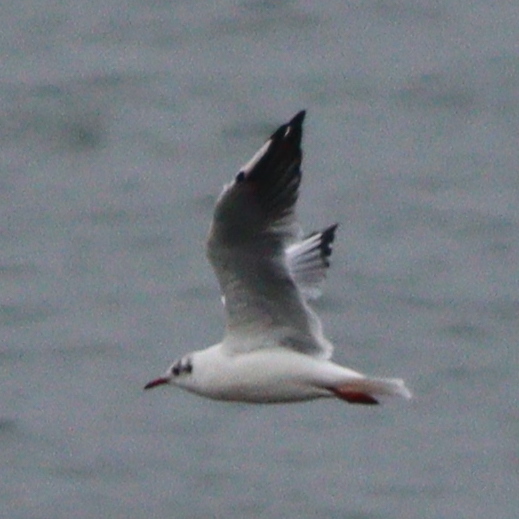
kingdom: Animalia
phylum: Chordata
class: Aves
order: Charadriiformes
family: Laridae
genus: Chroicocephalus
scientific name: Chroicocephalus ridibundus
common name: Black-headed gull
